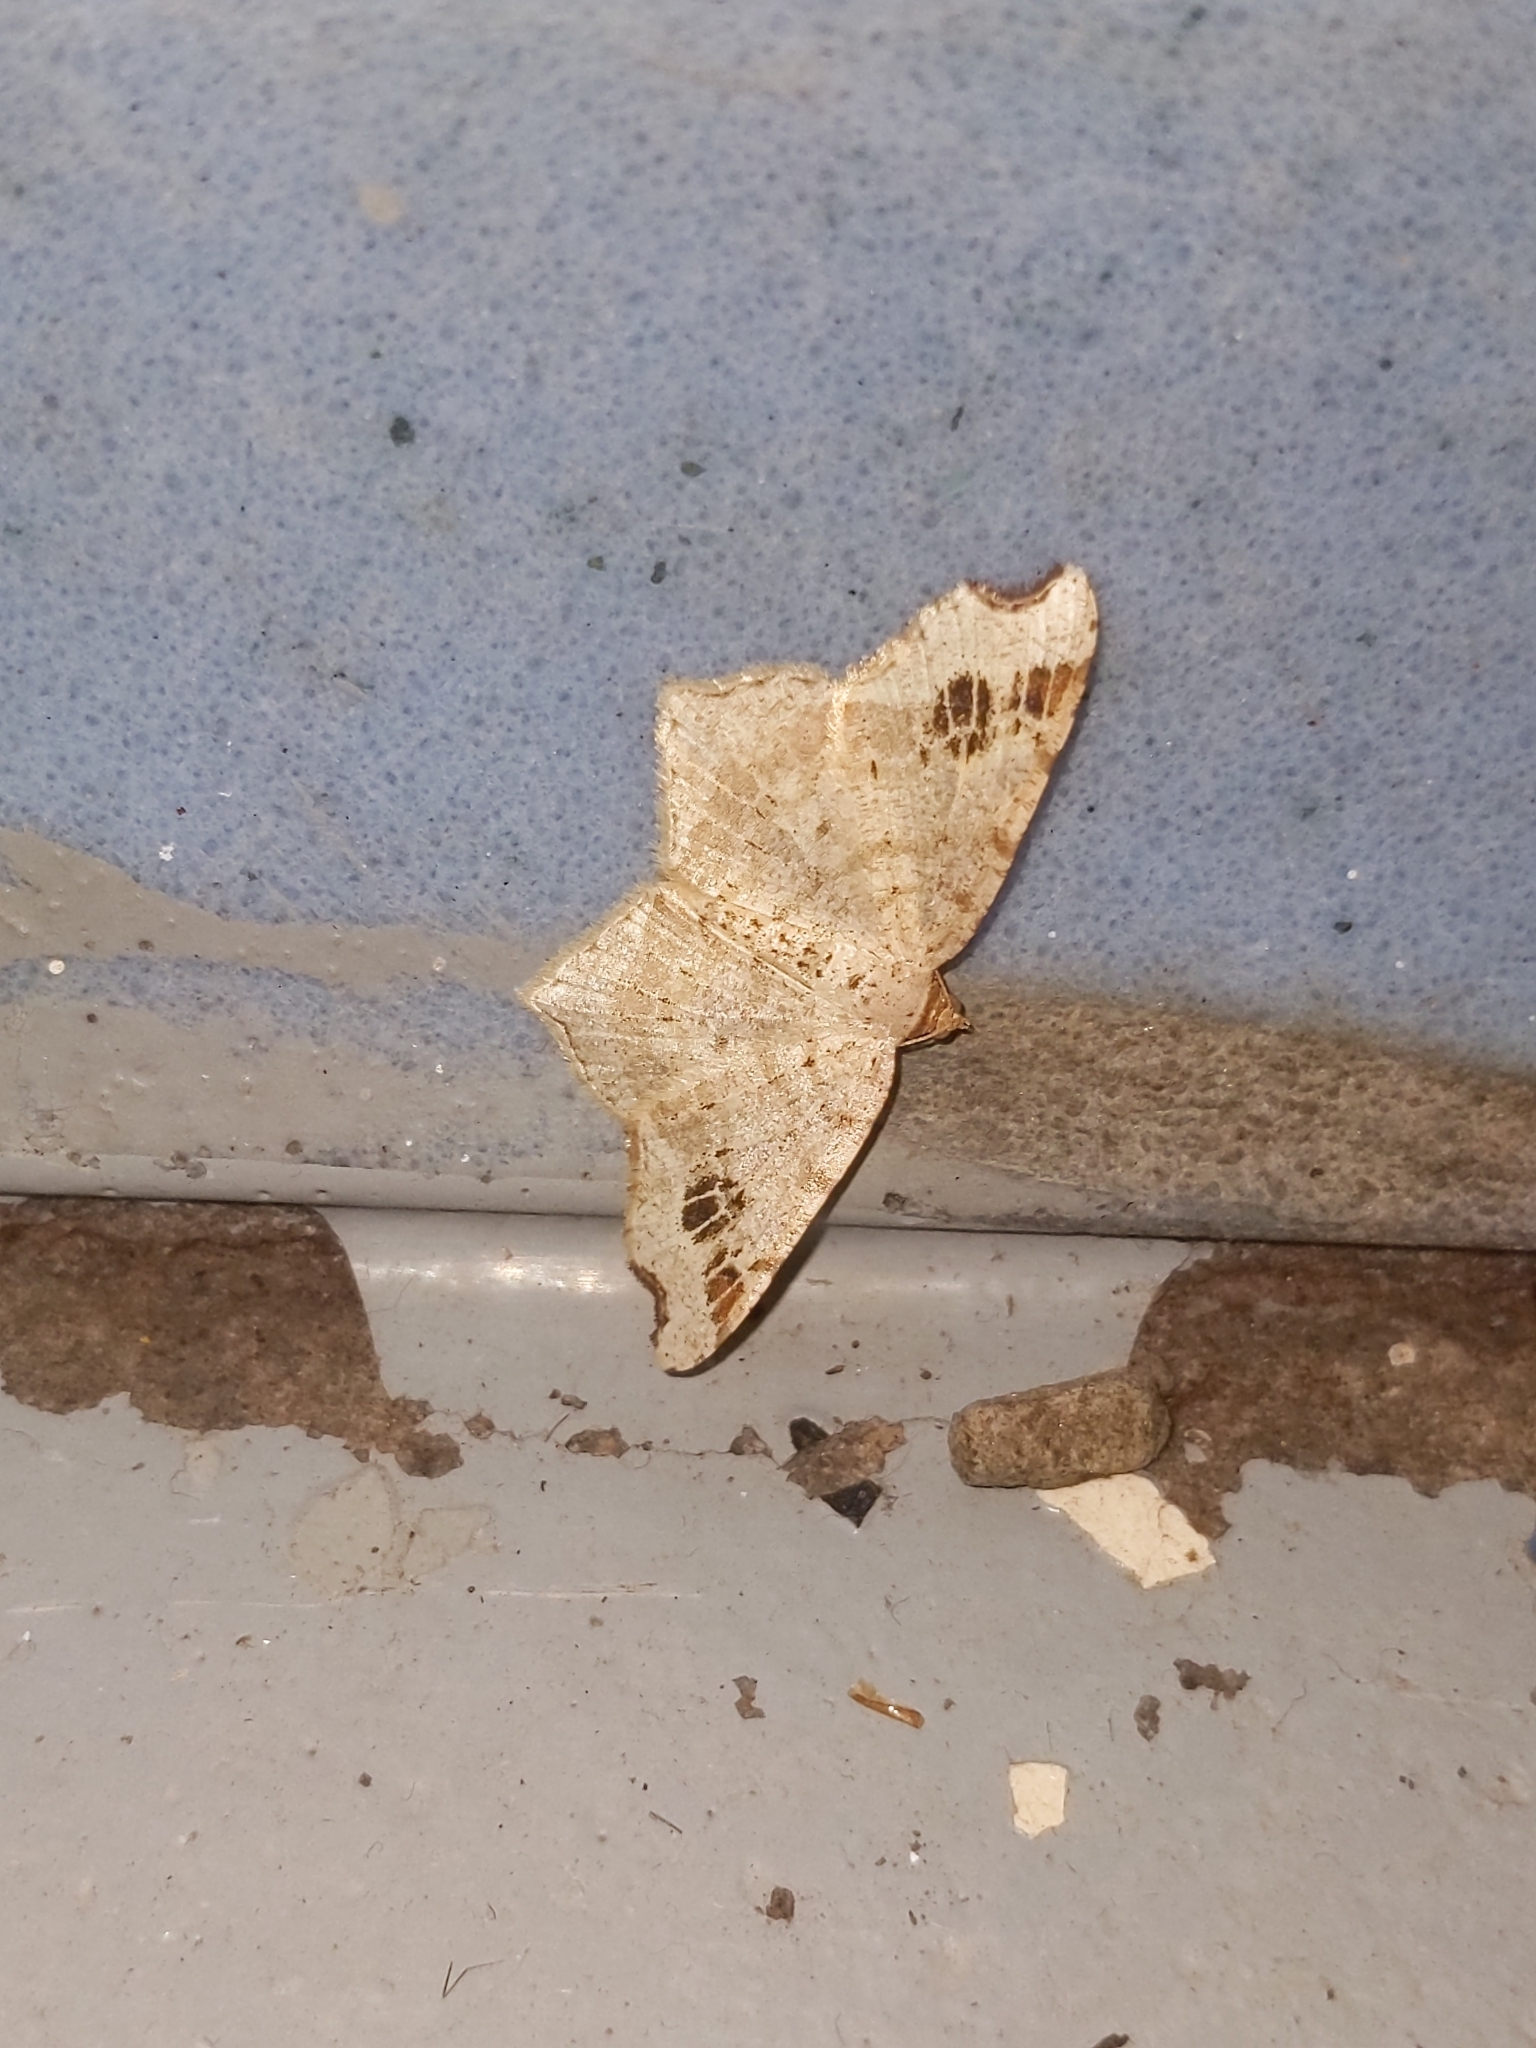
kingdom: Animalia
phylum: Arthropoda
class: Insecta
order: Lepidoptera
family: Geometridae
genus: Macaria
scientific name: Macaria aemulataria
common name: Common angle
